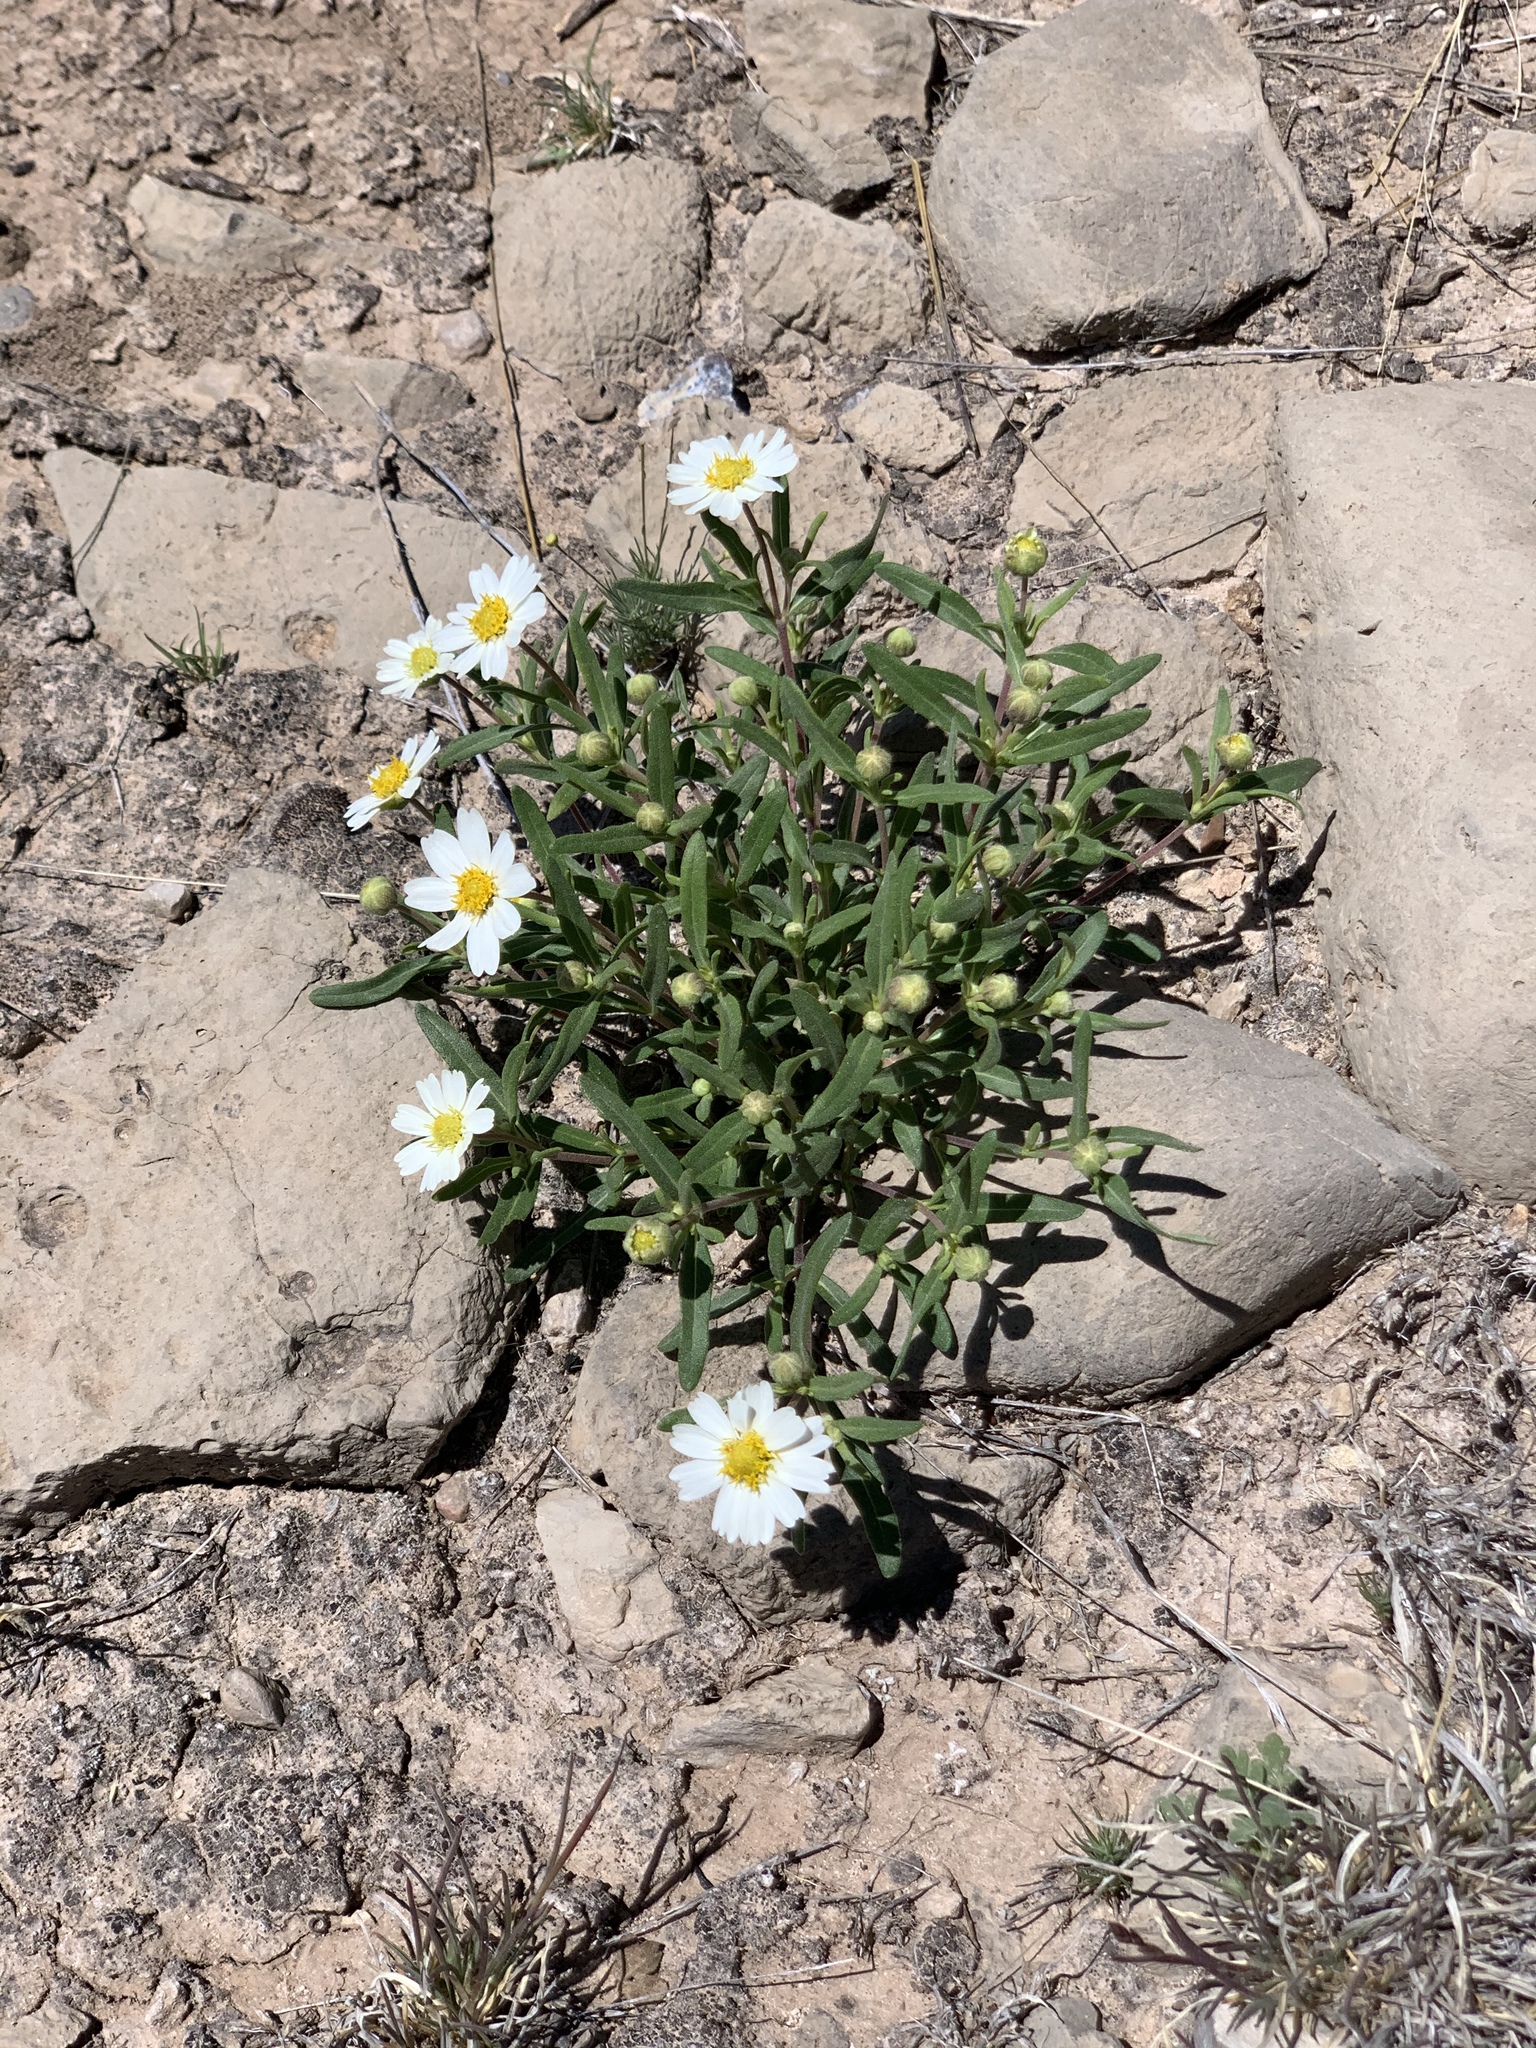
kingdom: Plantae
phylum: Tracheophyta
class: Magnoliopsida
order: Asterales
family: Asteraceae
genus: Melampodium
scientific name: Melampodium leucanthum
